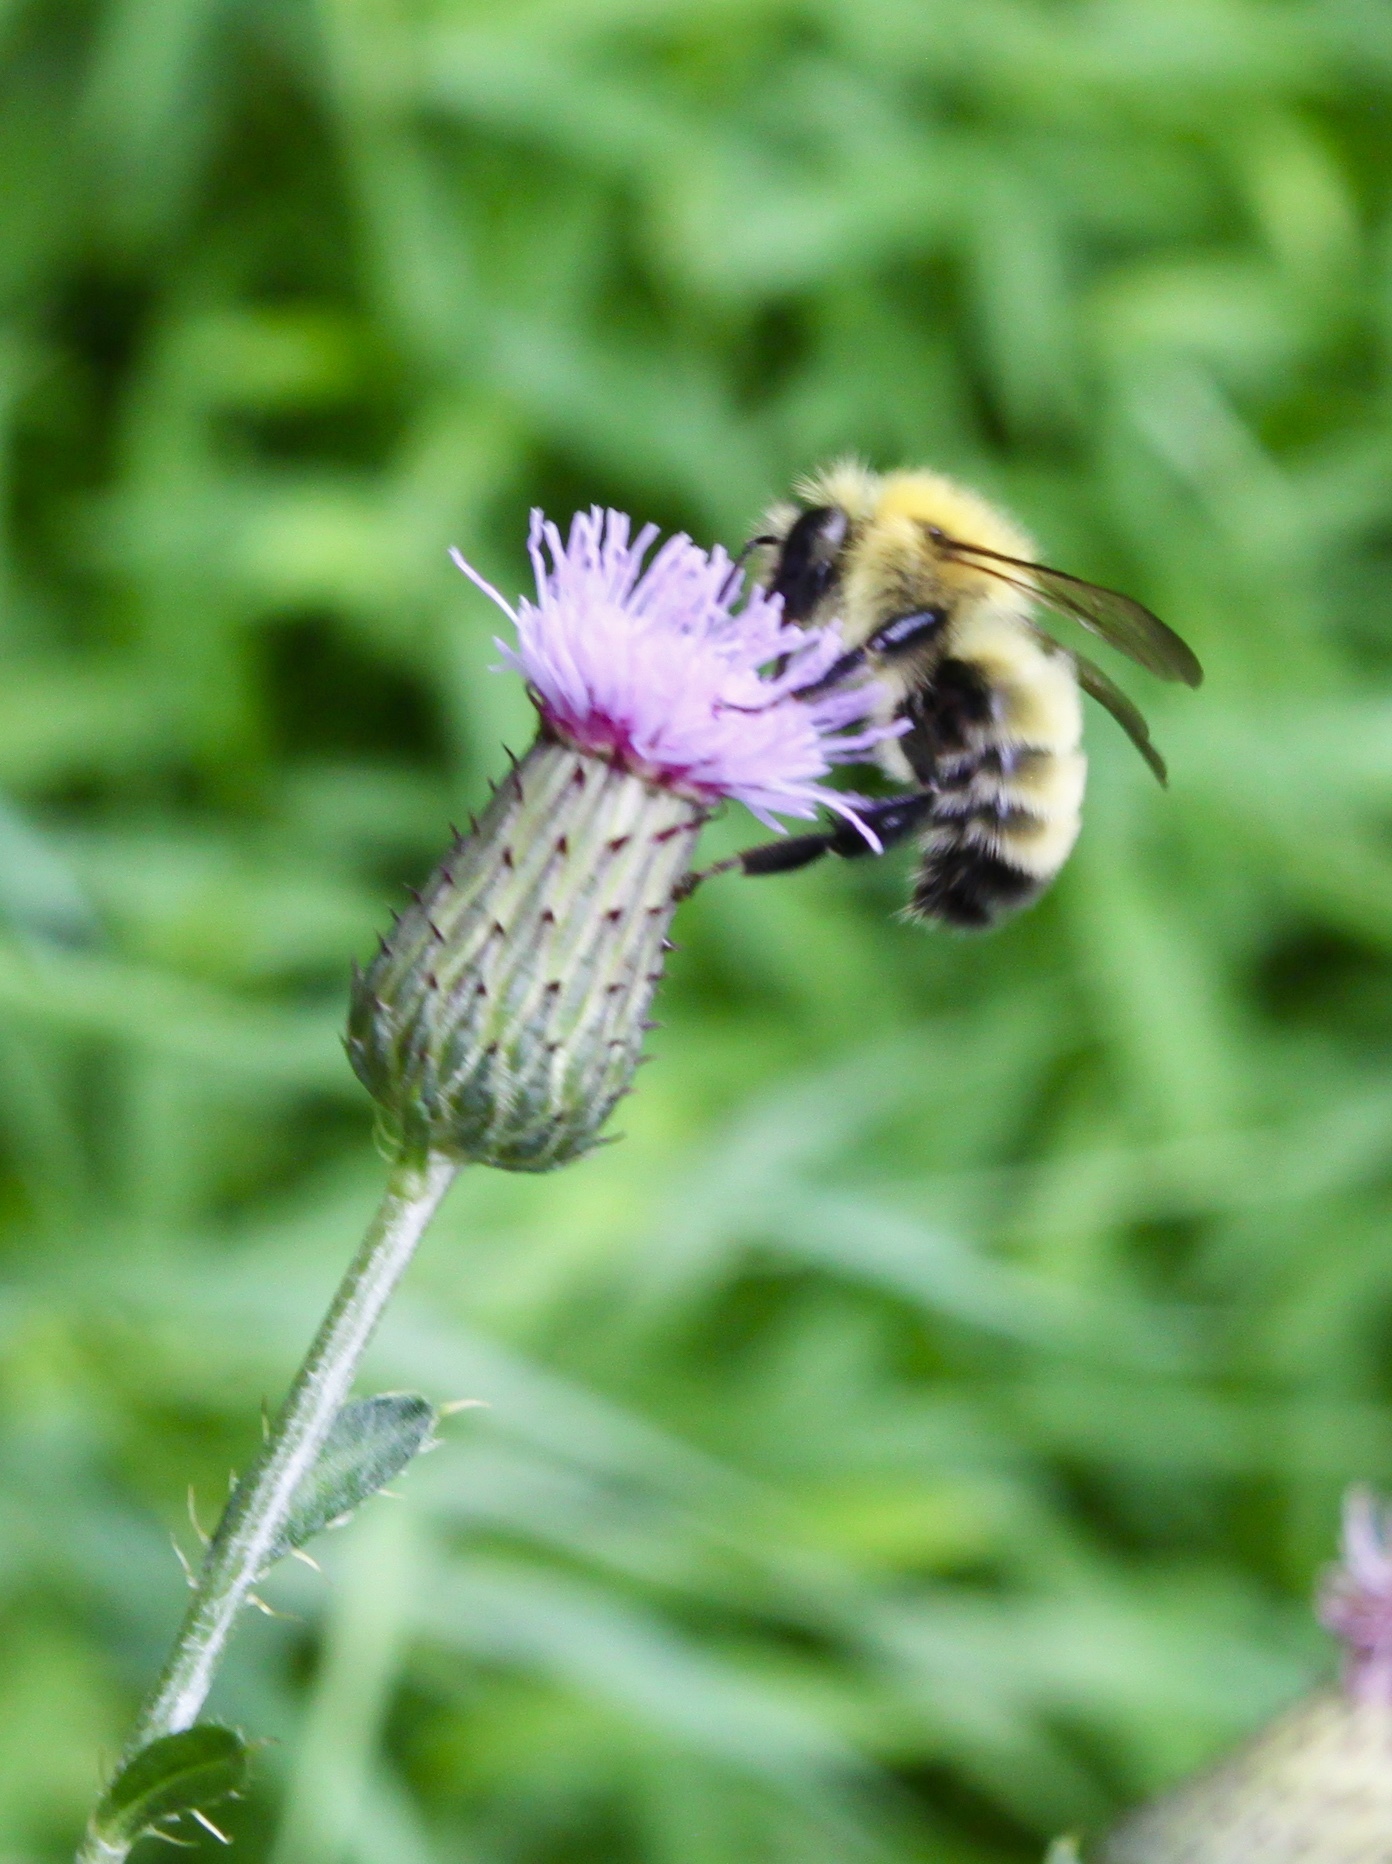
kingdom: Animalia
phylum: Arthropoda
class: Insecta
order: Hymenoptera
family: Apidae
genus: Bombus
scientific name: Bombus perplexus
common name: Confusing bumble bee
